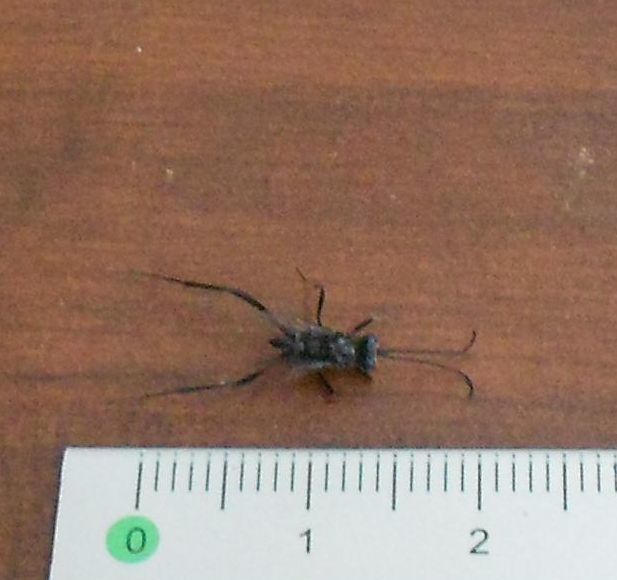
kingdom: Animalia
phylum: Arthropoda
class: Insecta
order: Hymenoptera
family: Evaniidae
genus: Evania
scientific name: Evania appendigaster
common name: Ensign wasp
